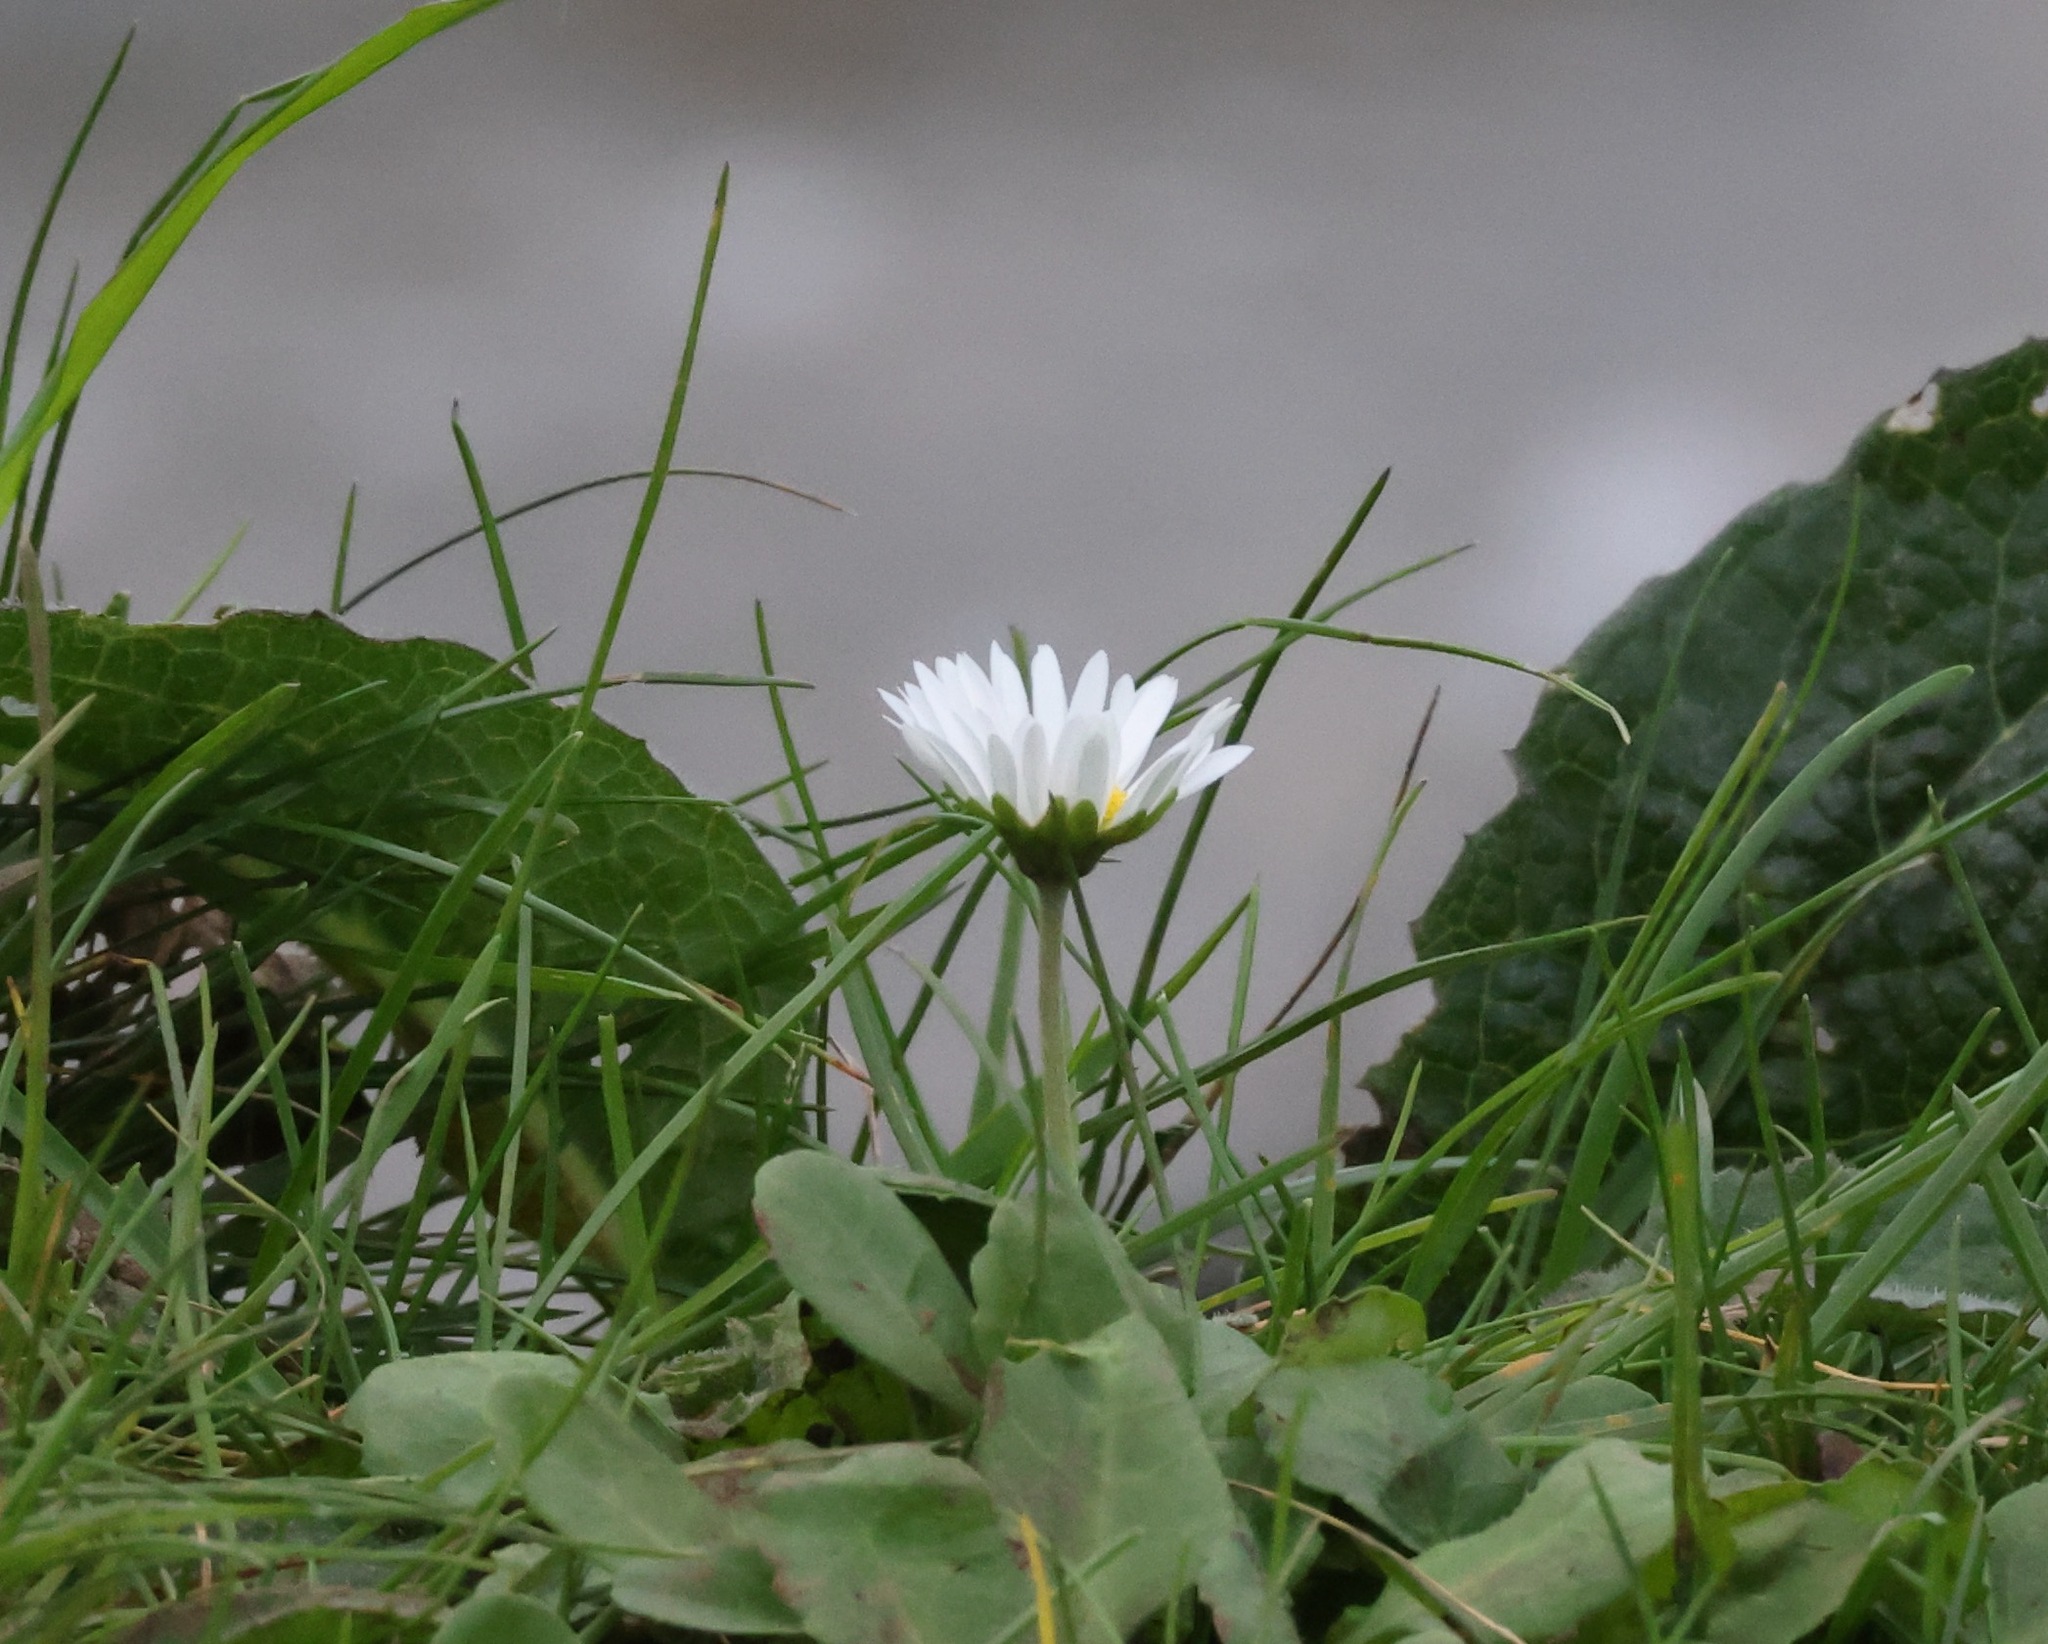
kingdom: Plantae
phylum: Tracheophyta
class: Magnoliopsida
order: Asterales
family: Asteraceae
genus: Bellis
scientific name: Bellis perennis
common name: Lawndaisy
